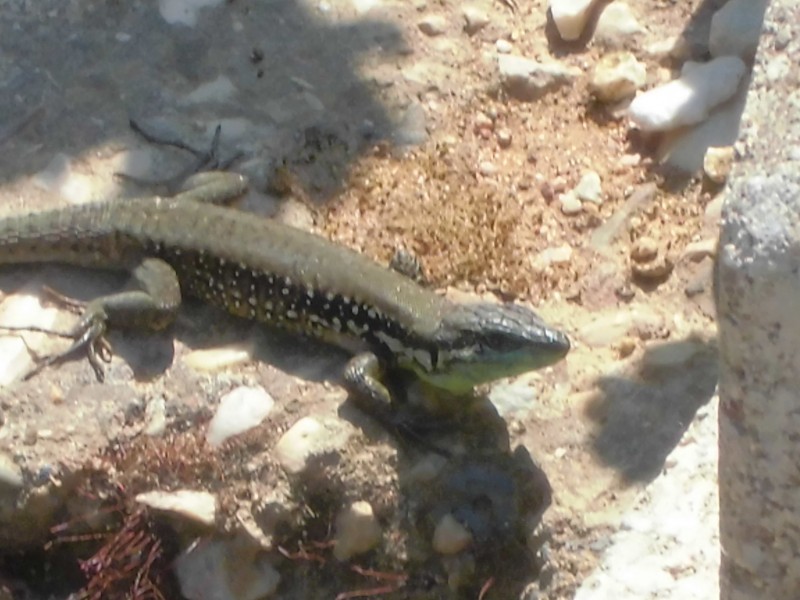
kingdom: Animalia
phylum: Chordata
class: Squamata
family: Lacertidae
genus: Phoenicolacerta
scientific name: Phoenicolacerta laevis
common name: Lebanon lizard
